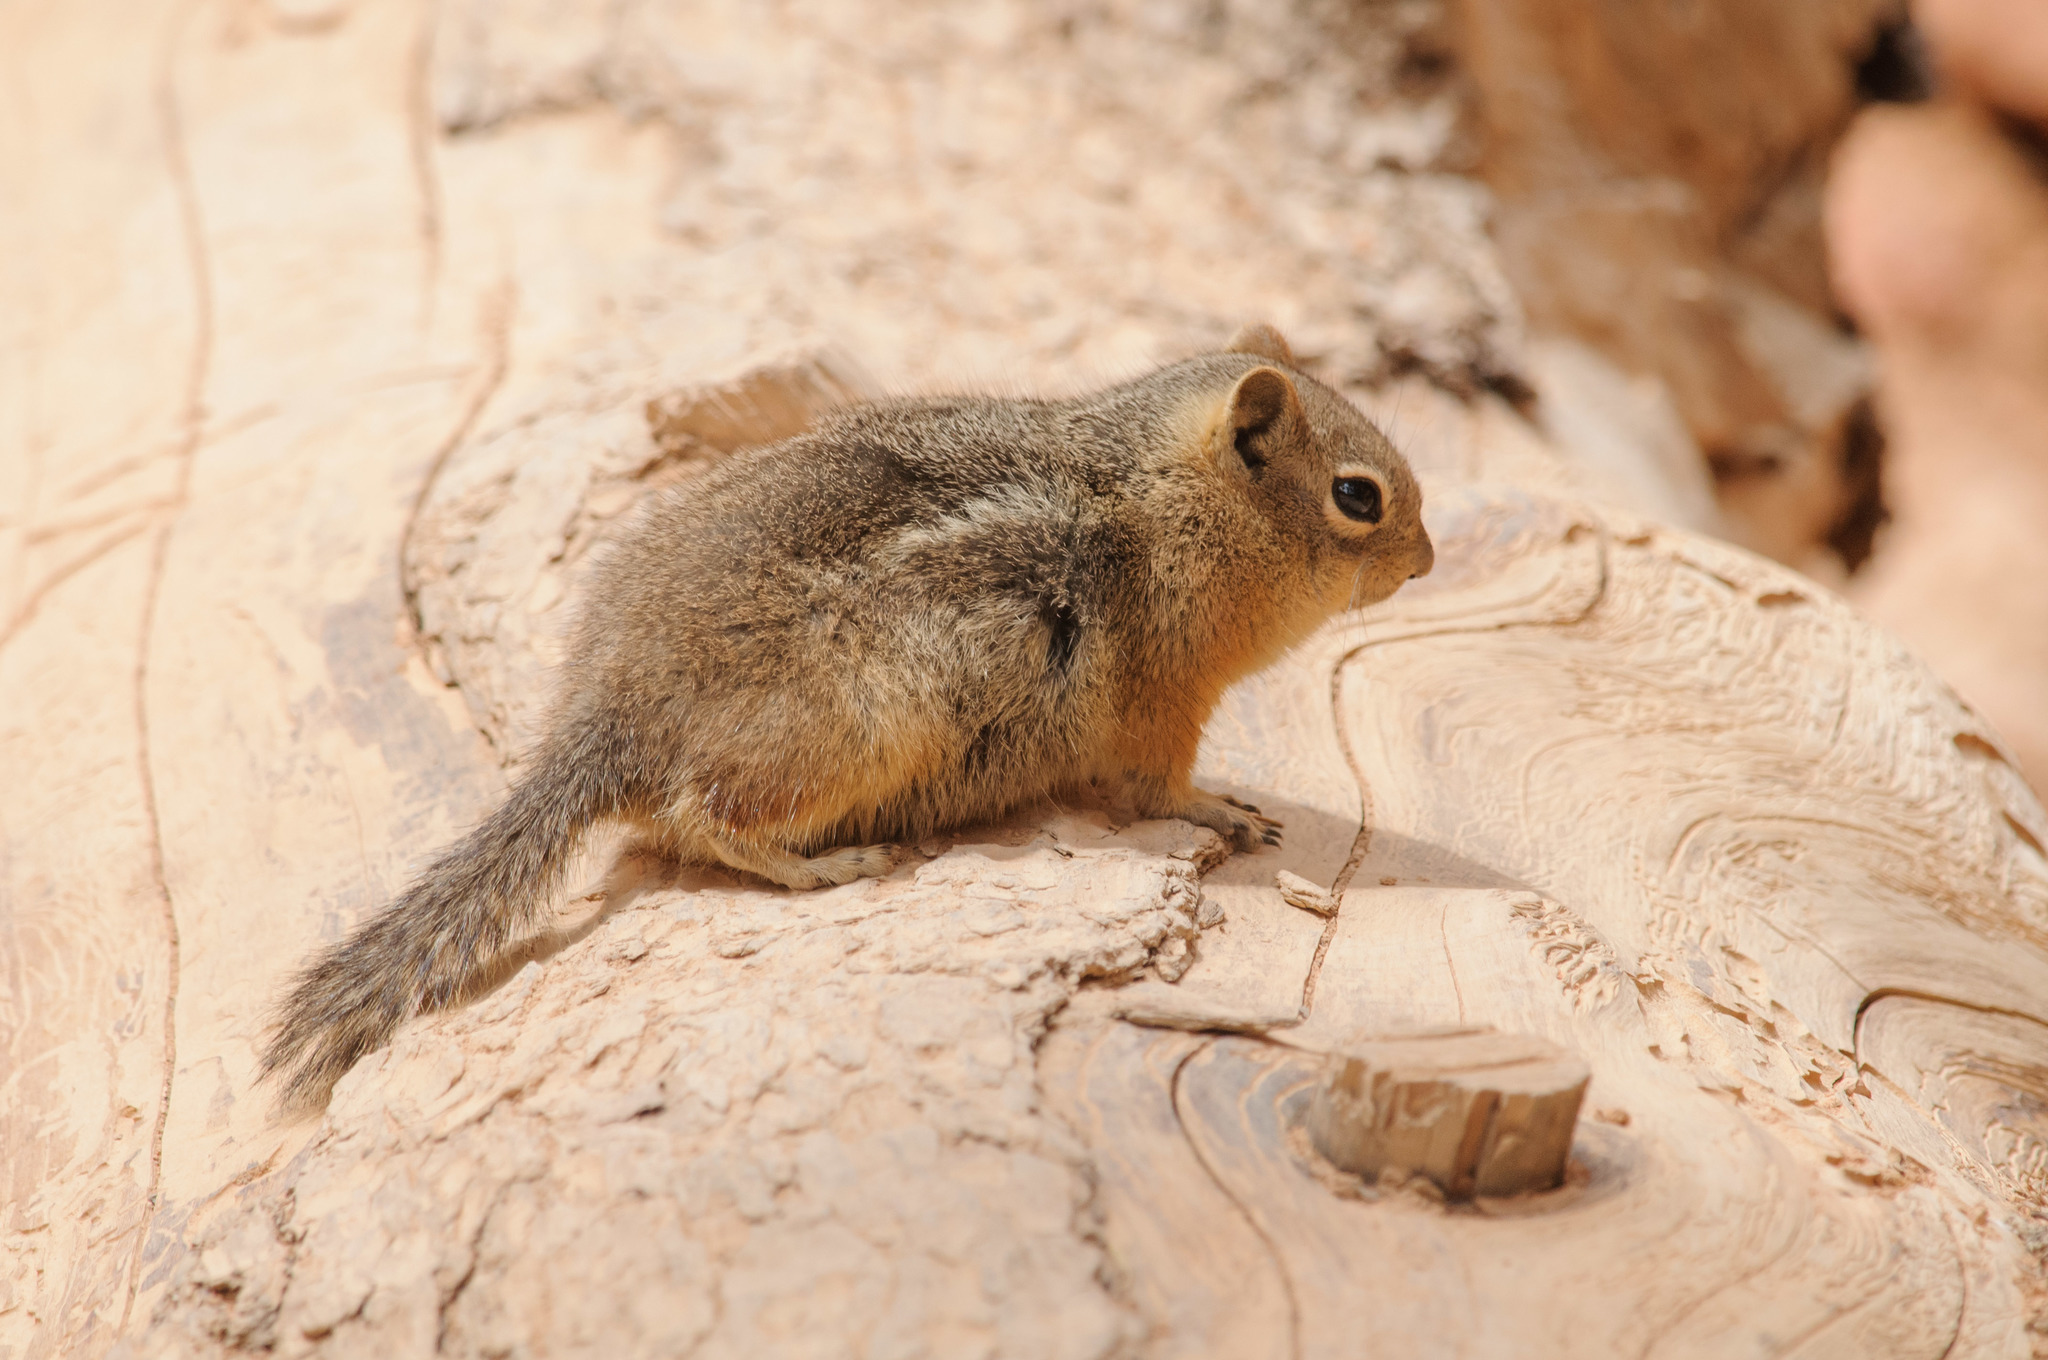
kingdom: Animalia
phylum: Chordata
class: Mammalia
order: Rodentia
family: Sciuridae
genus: Callospermophilus
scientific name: Callospermophilus lateralis
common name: Golden-mantled ground squirrel
